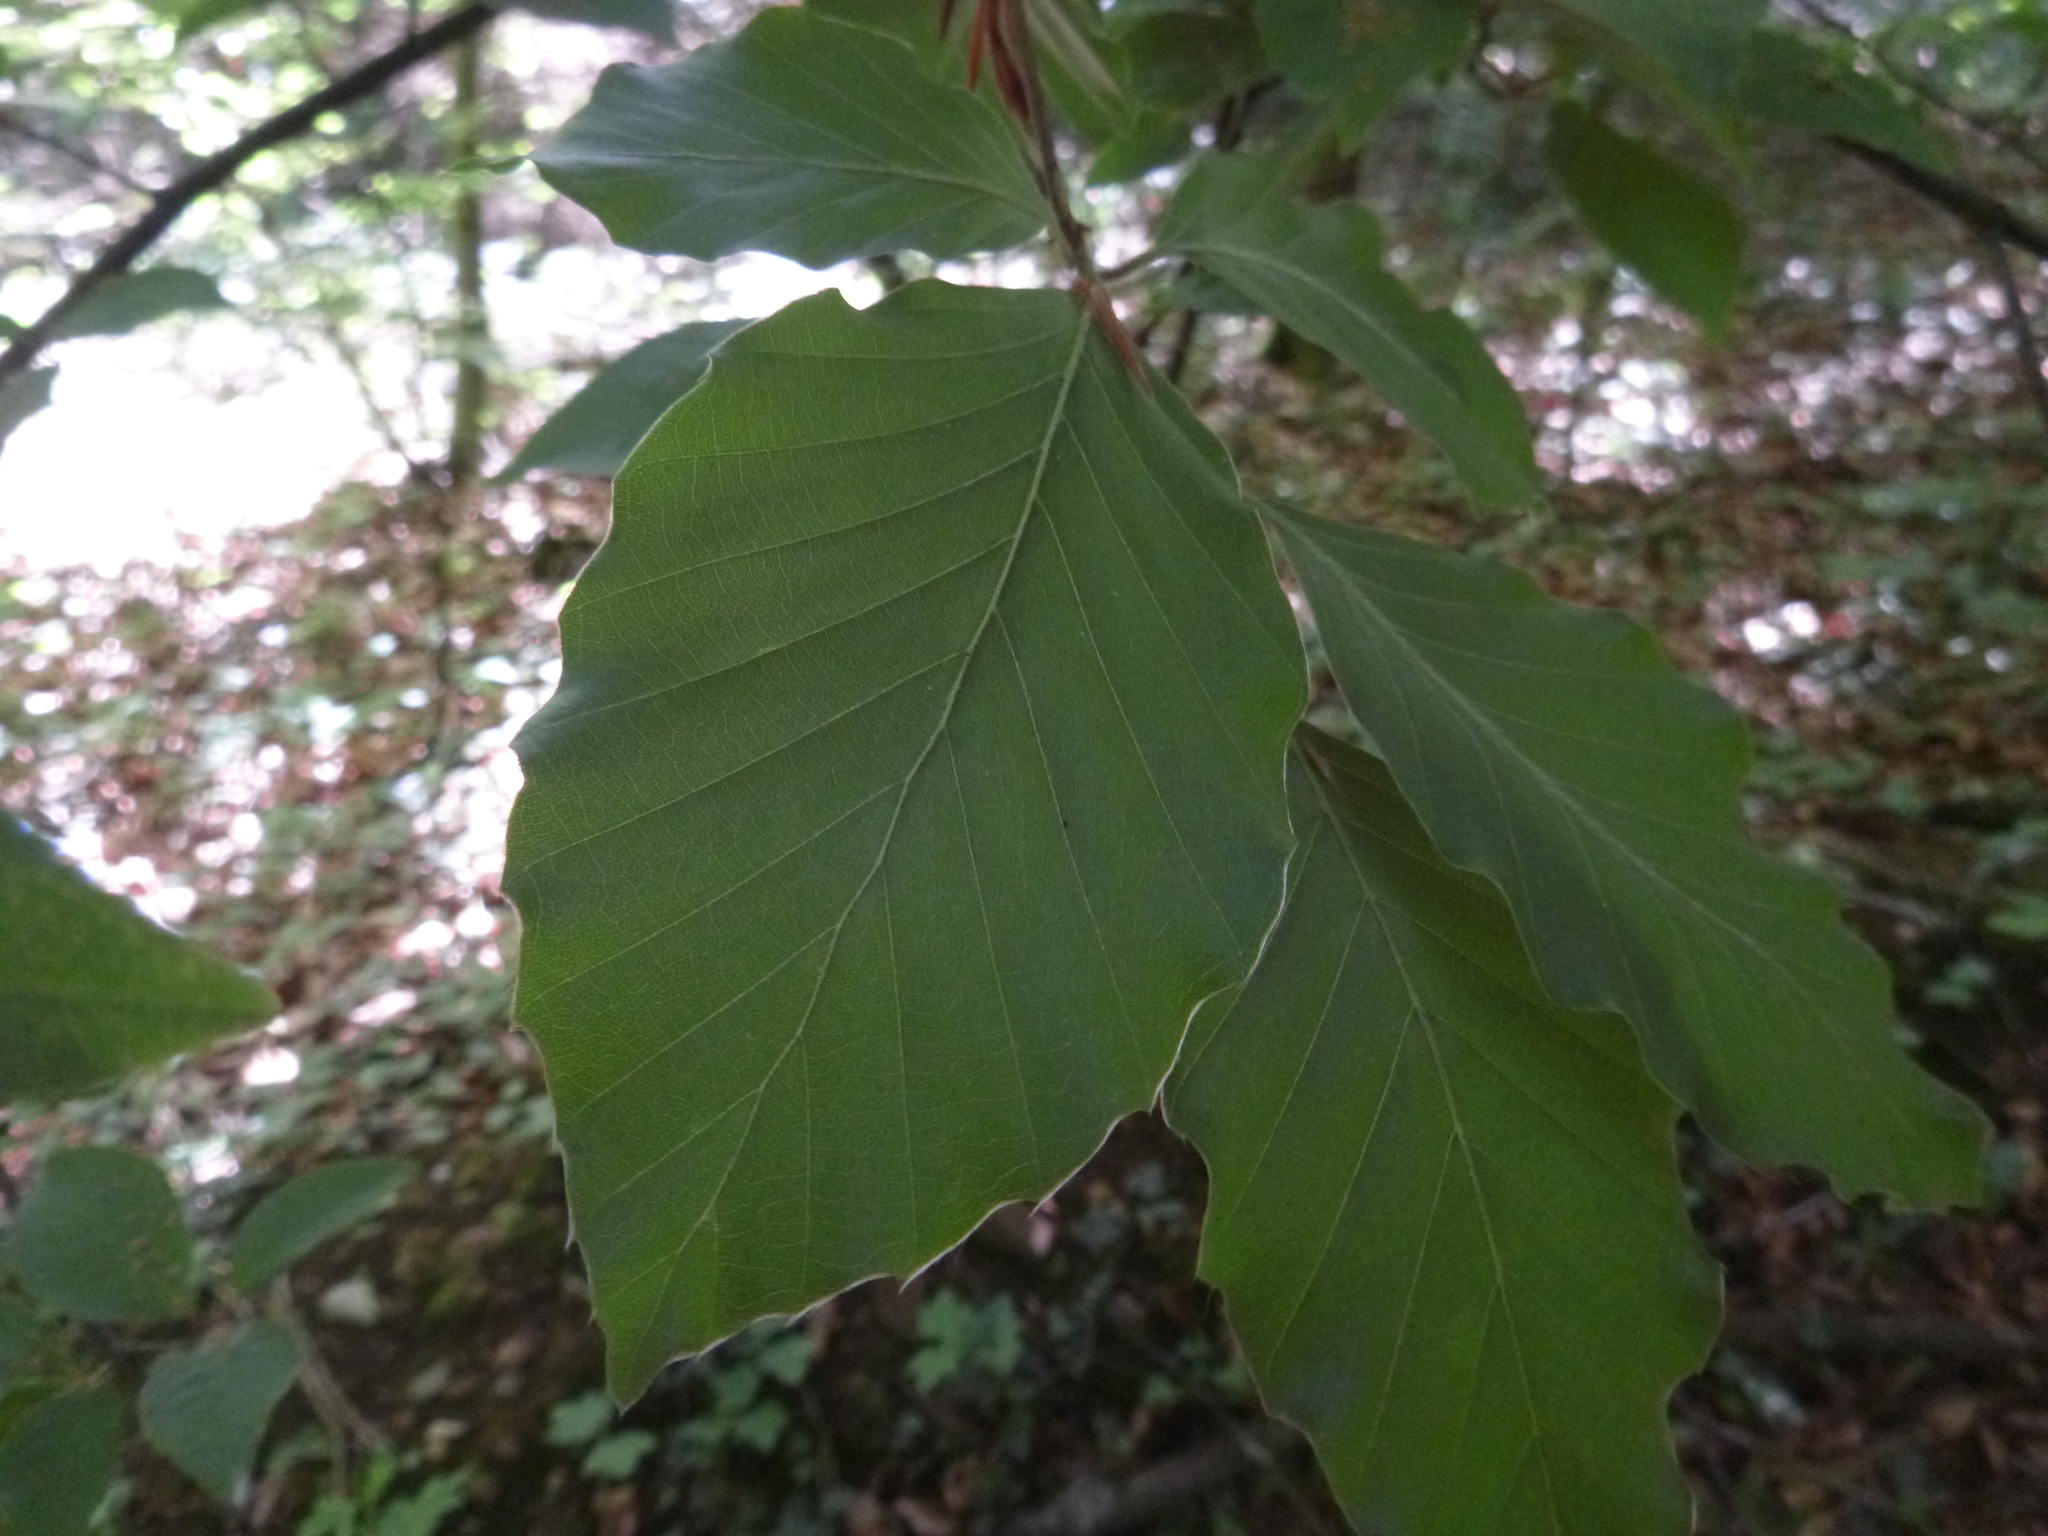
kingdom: Plantae
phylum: Tracheophyta
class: Magnoliopsida
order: Fagales
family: Fagaceae
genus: Fagus
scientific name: Fagus sylvatica
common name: Beech
